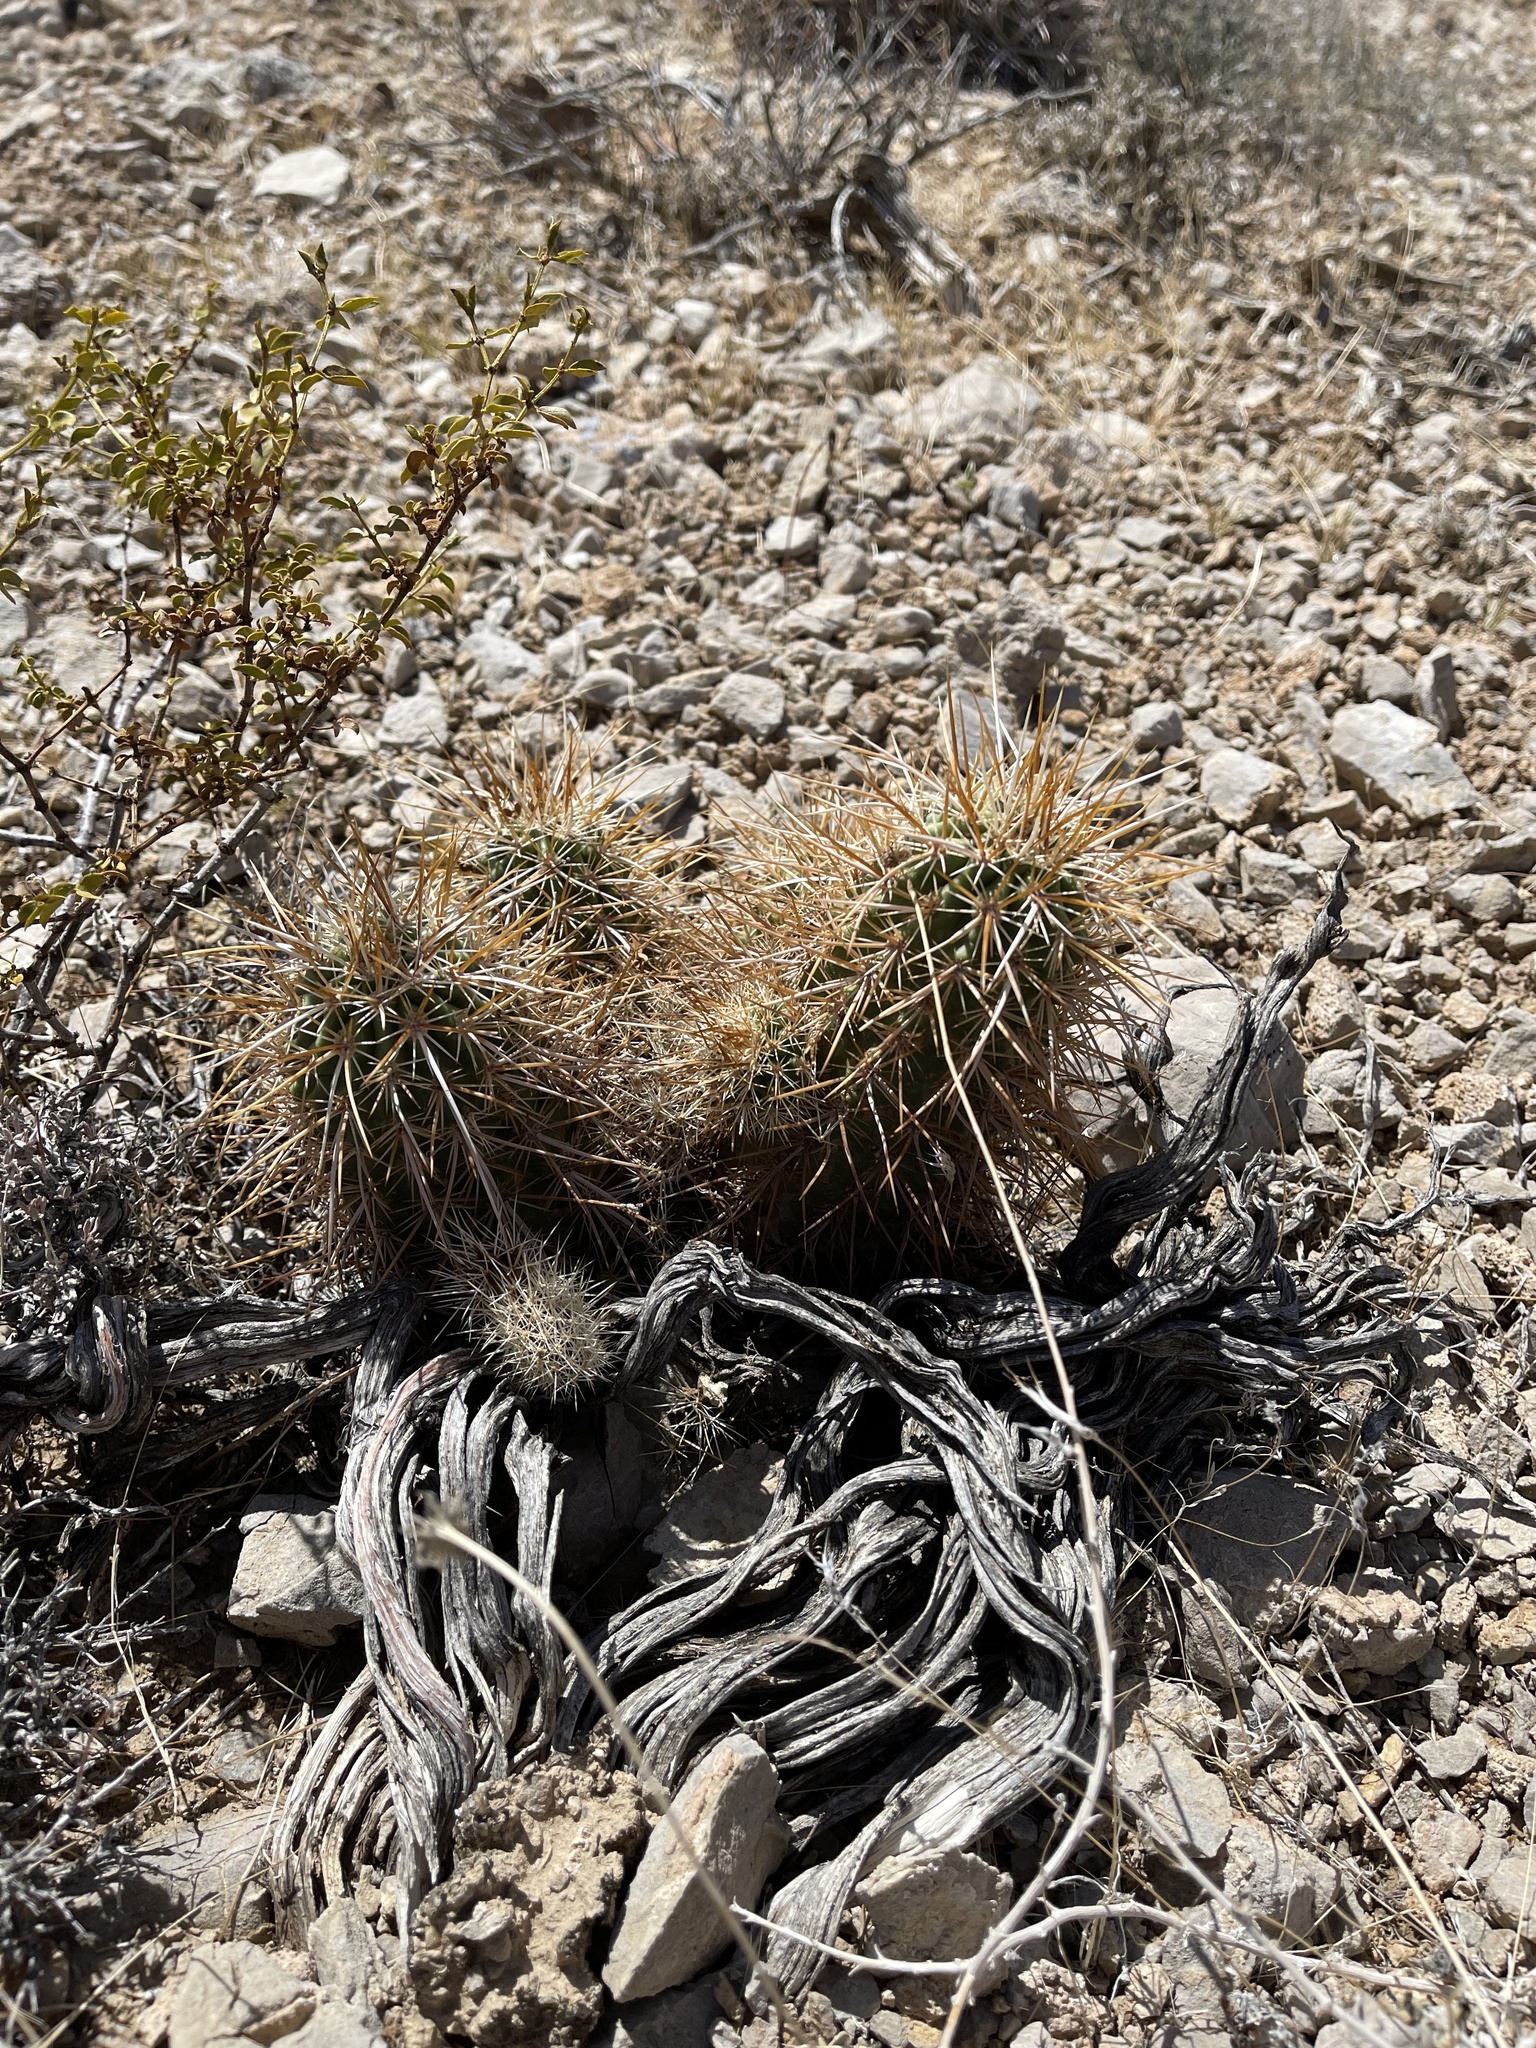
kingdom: Plantae
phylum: Tracheophyta
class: Magnoliopsida
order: Caryophyllales
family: Cactaceae
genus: Echinocereus
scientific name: Echinocereus engelmannii
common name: Engelmann's hedgehog cactus
